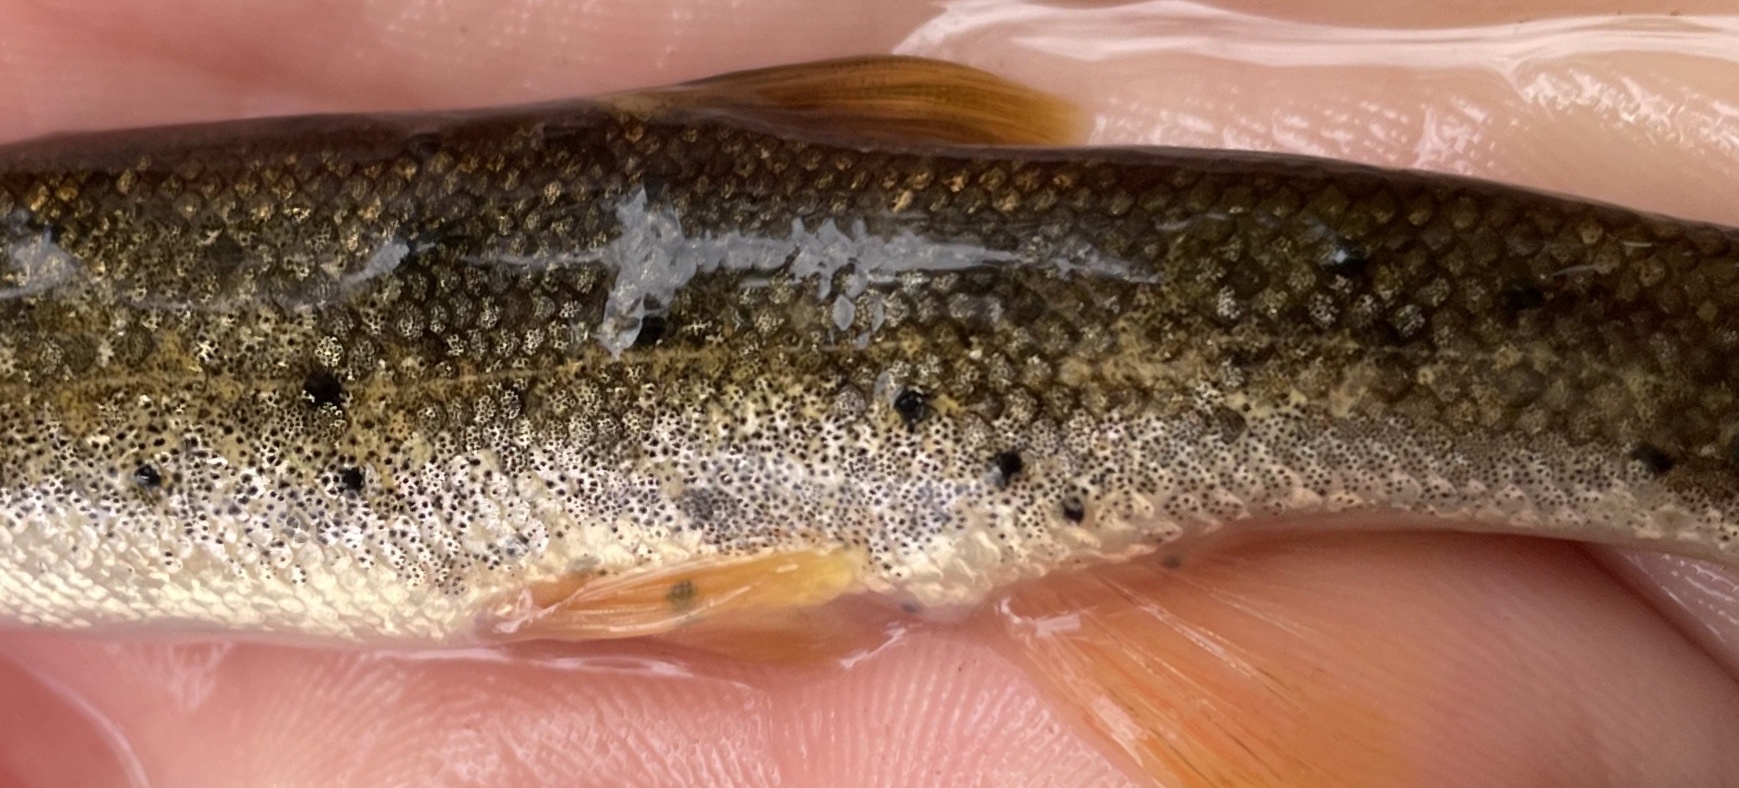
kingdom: Animalia
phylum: Platyhelminthes
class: Trematoda
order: Diplostomida
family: Diplostomidae
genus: Neascus
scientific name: Neascus
